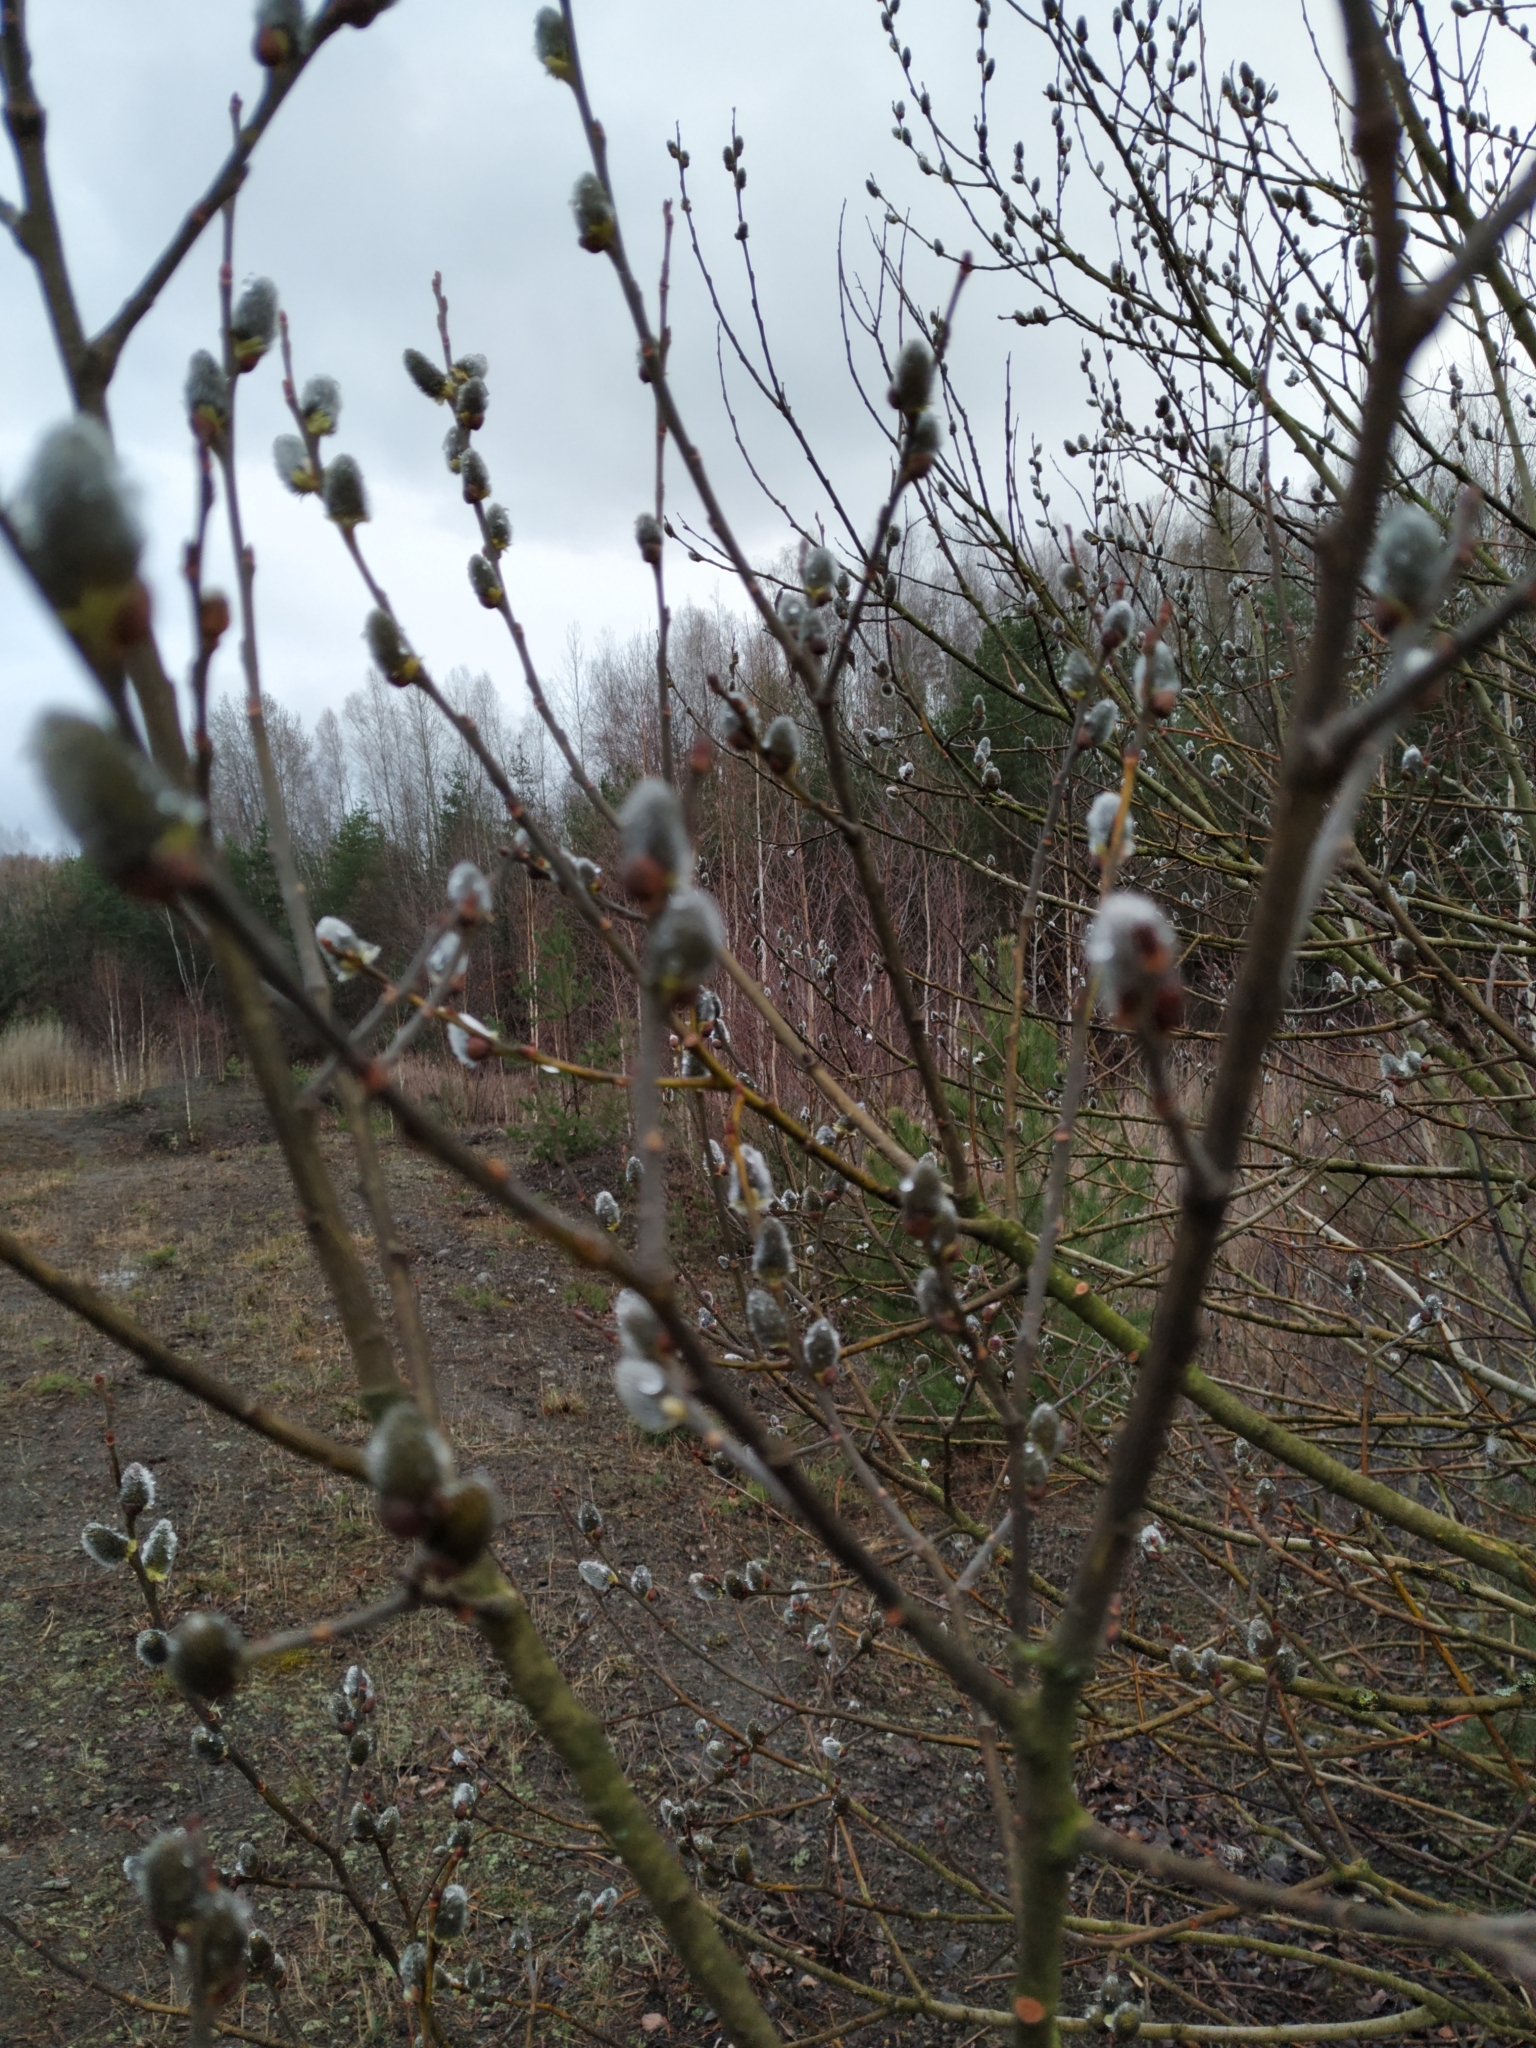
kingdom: Plantae
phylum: Tracheophyta
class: Magnoliopsida
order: Malpighiales
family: Salicaceae
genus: Salix
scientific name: Salix caprea
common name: Goat willow
